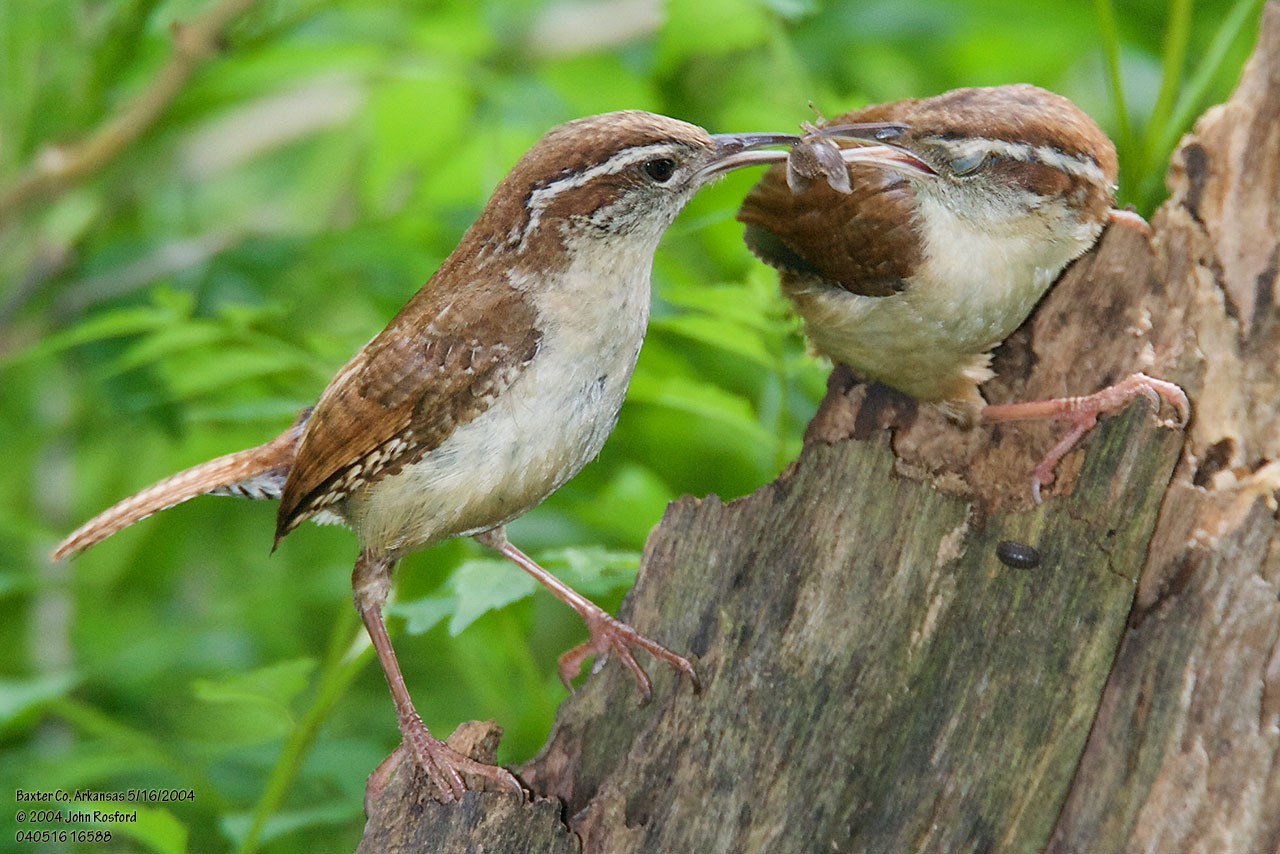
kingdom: Animalia
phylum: Chordata
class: Aves
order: Passeriformes
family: Troglodytidae
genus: Thryothorus
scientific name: Thryothorus ludovicianus
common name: Carolina wren
